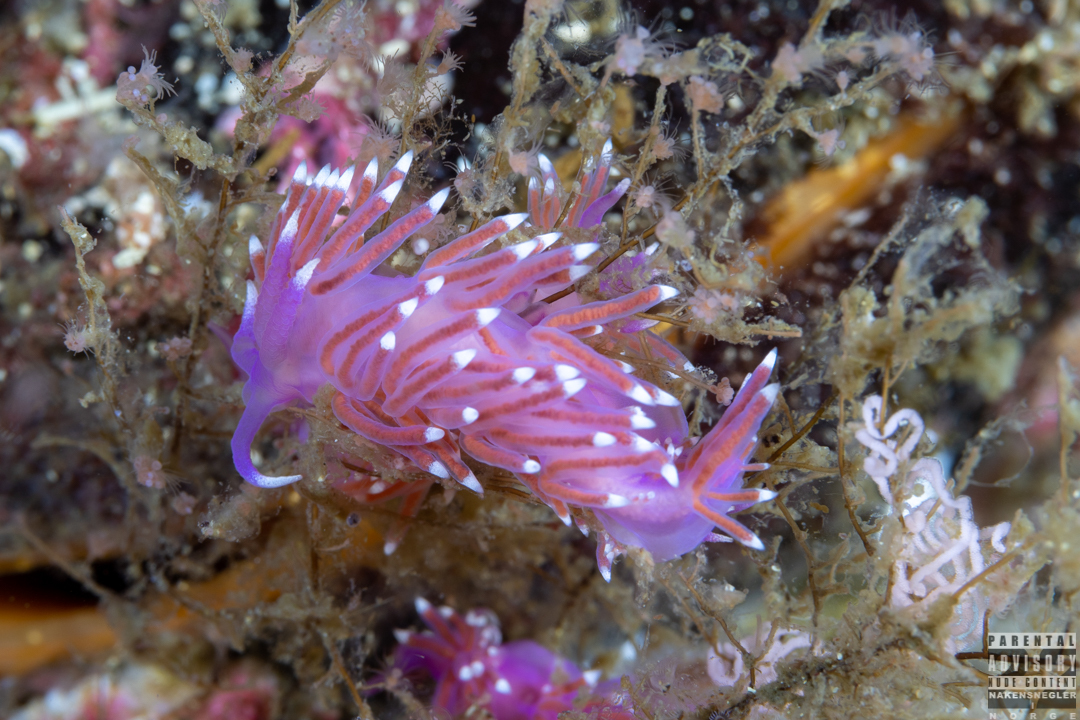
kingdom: Animalia
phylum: Mollusca
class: Gastropoda
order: Nudibranchia
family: Flabellinidae
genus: Edmundsella
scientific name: Edmundsella pedata
